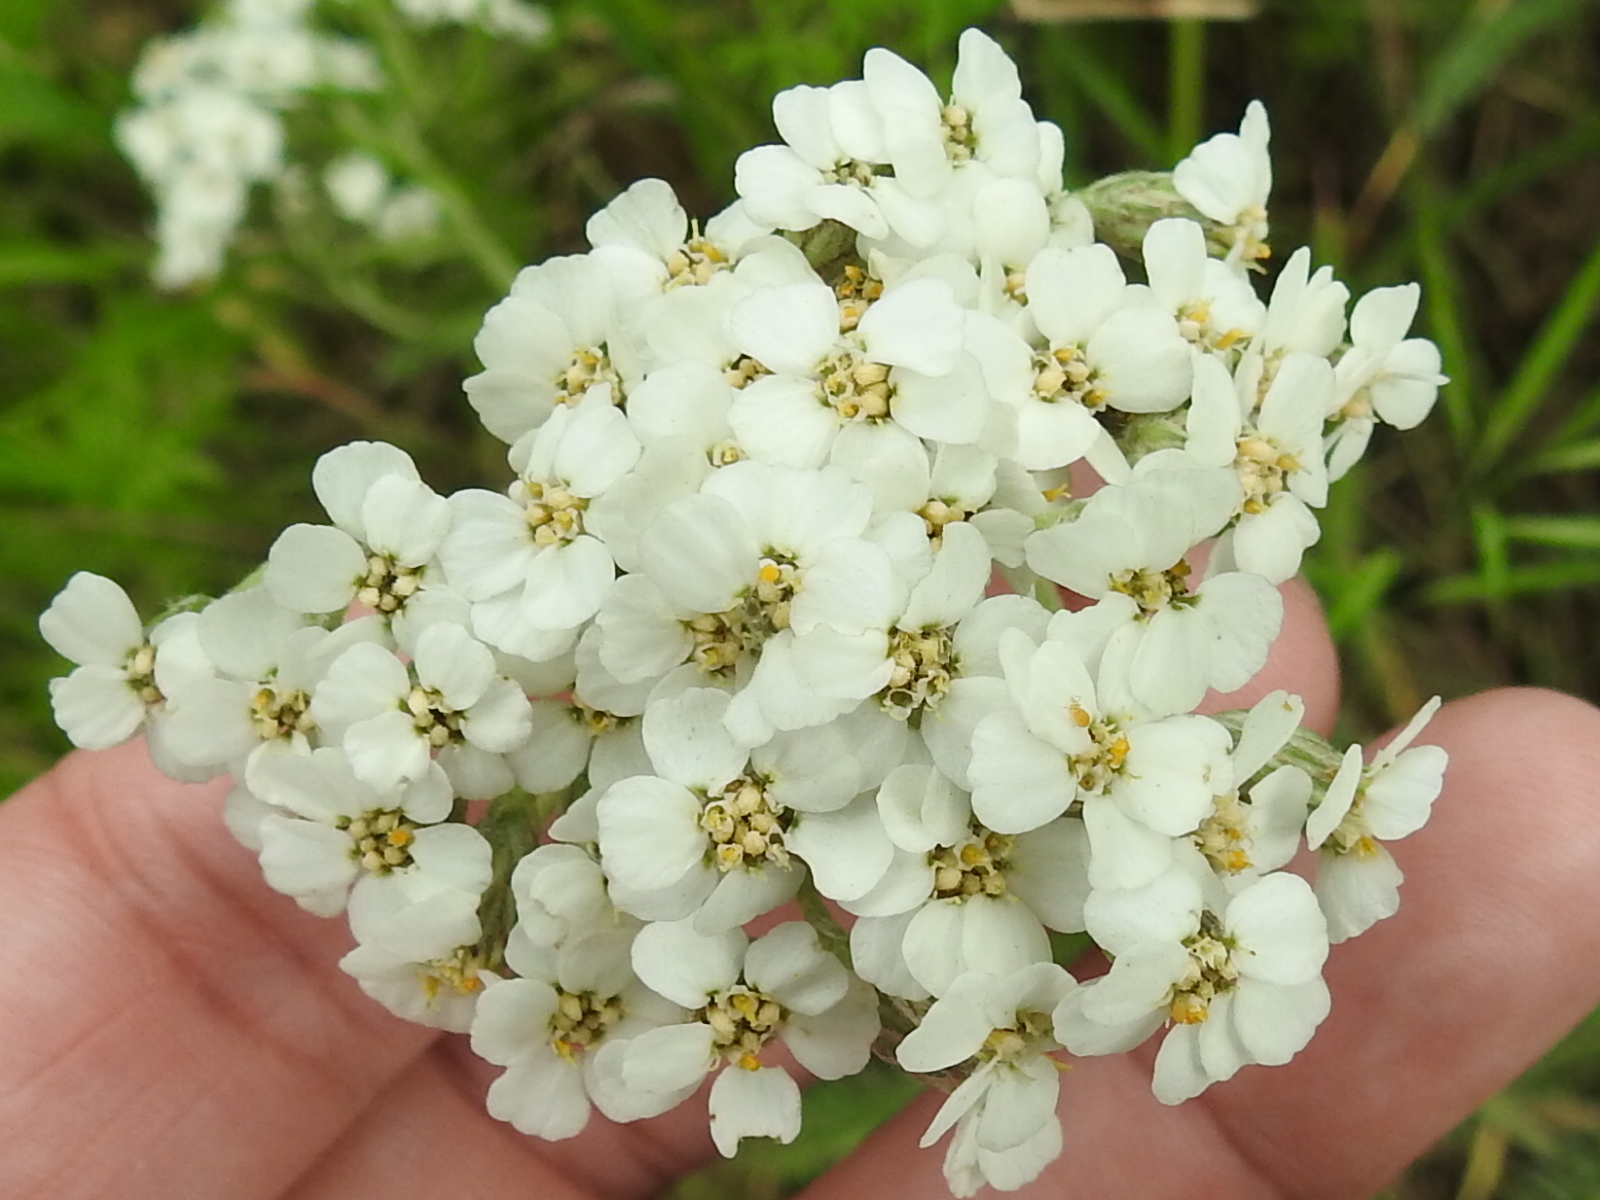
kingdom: Plantae
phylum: Tracheophyta
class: Magnoliopsida
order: Asterales
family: Asteraceae
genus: Achillea
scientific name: Achillea millefolium
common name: Yarrow
